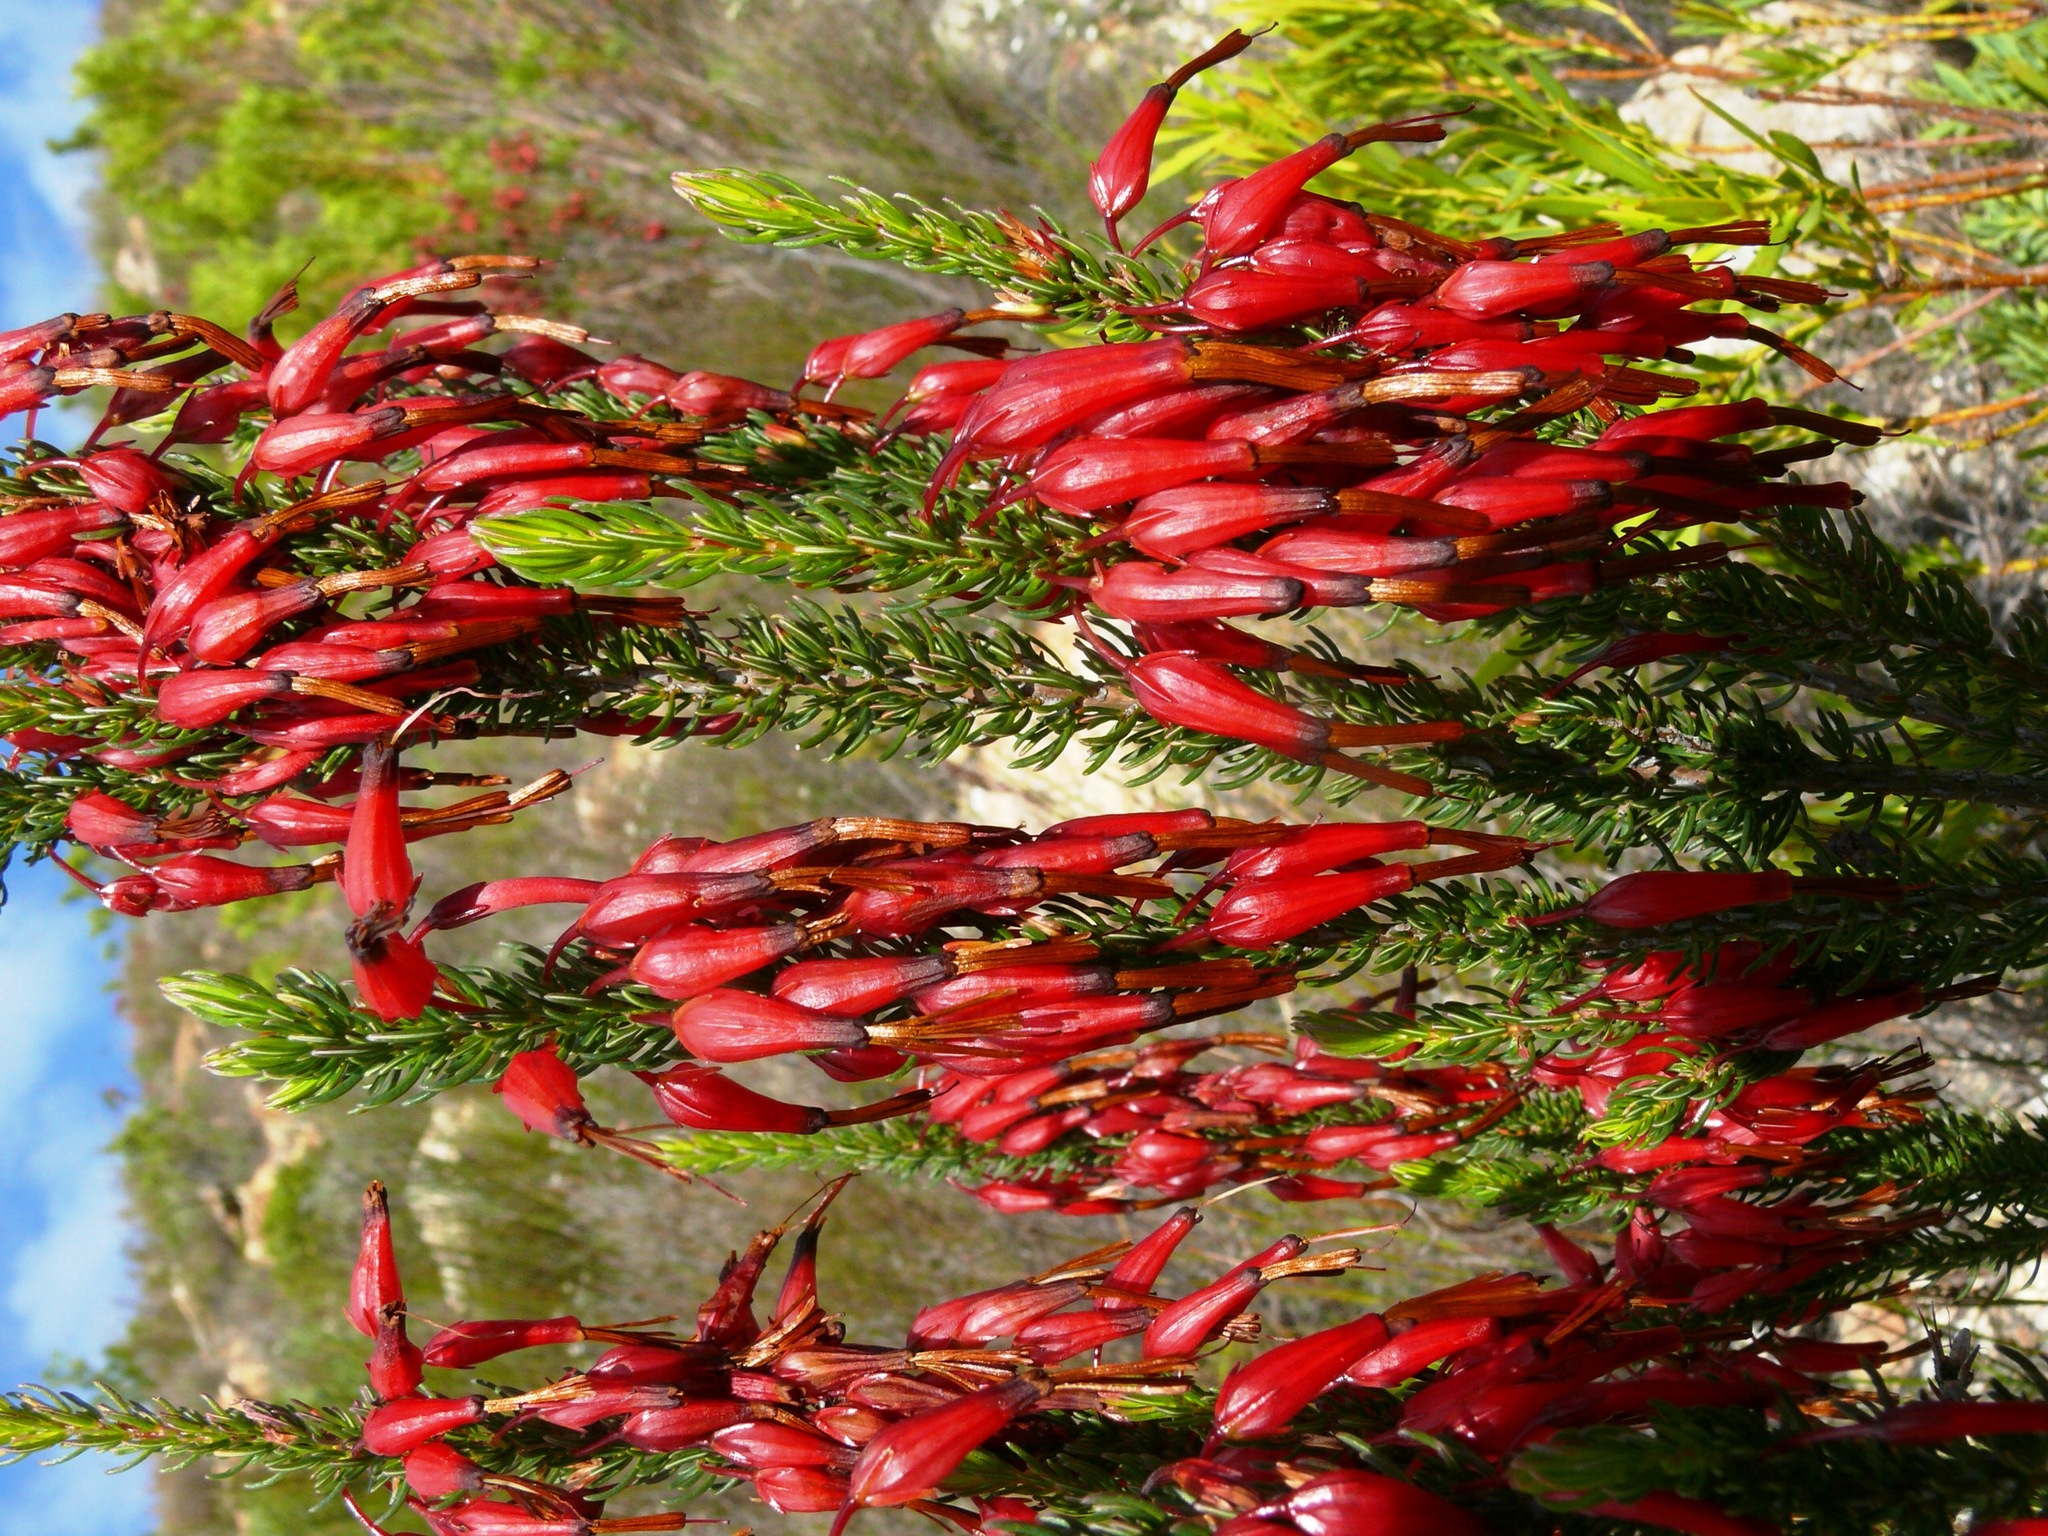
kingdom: Plantae
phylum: Tracheophyta
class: Magnoliopsida
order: Ericales
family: Ericaceae
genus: Erica
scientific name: Erica plukenetii
